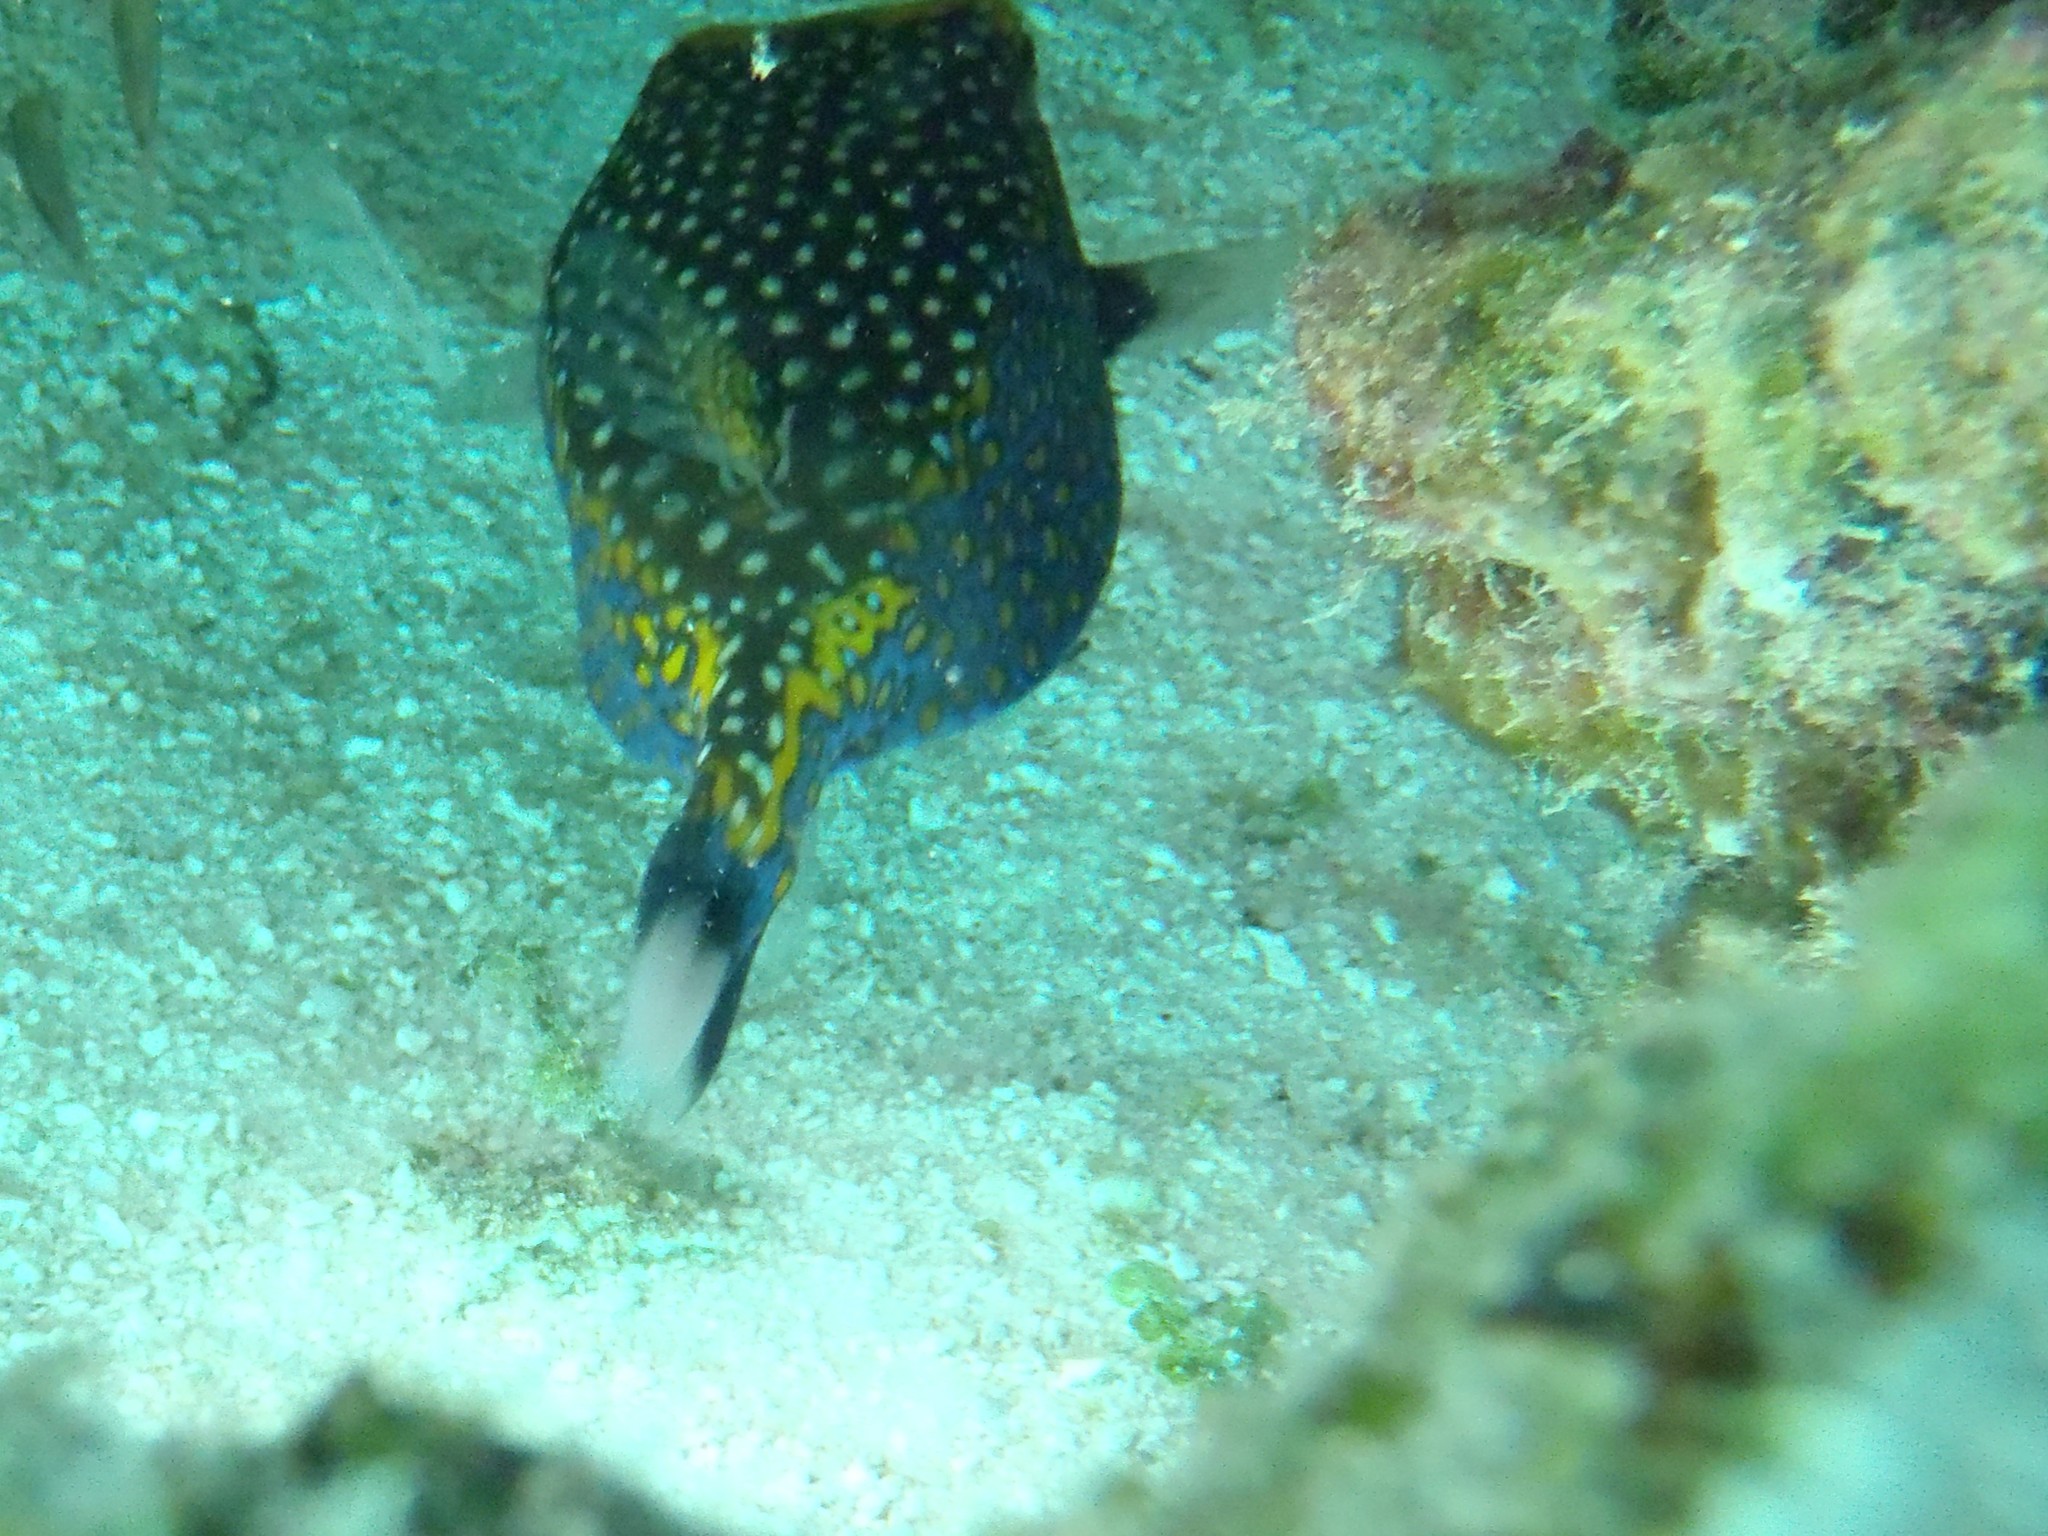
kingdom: Animalia
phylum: Chordata
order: Tetraodontiformes
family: Ostraciidae
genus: Ostracion
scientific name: Ostracion meleagris
